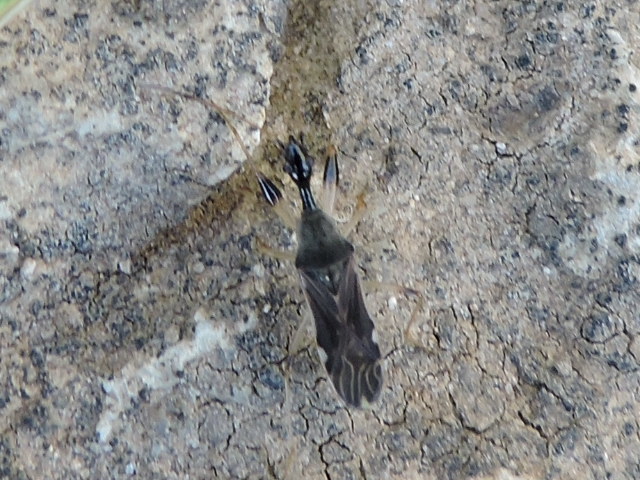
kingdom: Animalia
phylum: Arthropoda
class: Insecta
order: Hemiptera
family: Rhyparochromidae
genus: Myodocha
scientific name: Myodocha serripes
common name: Long-necked seed bug
